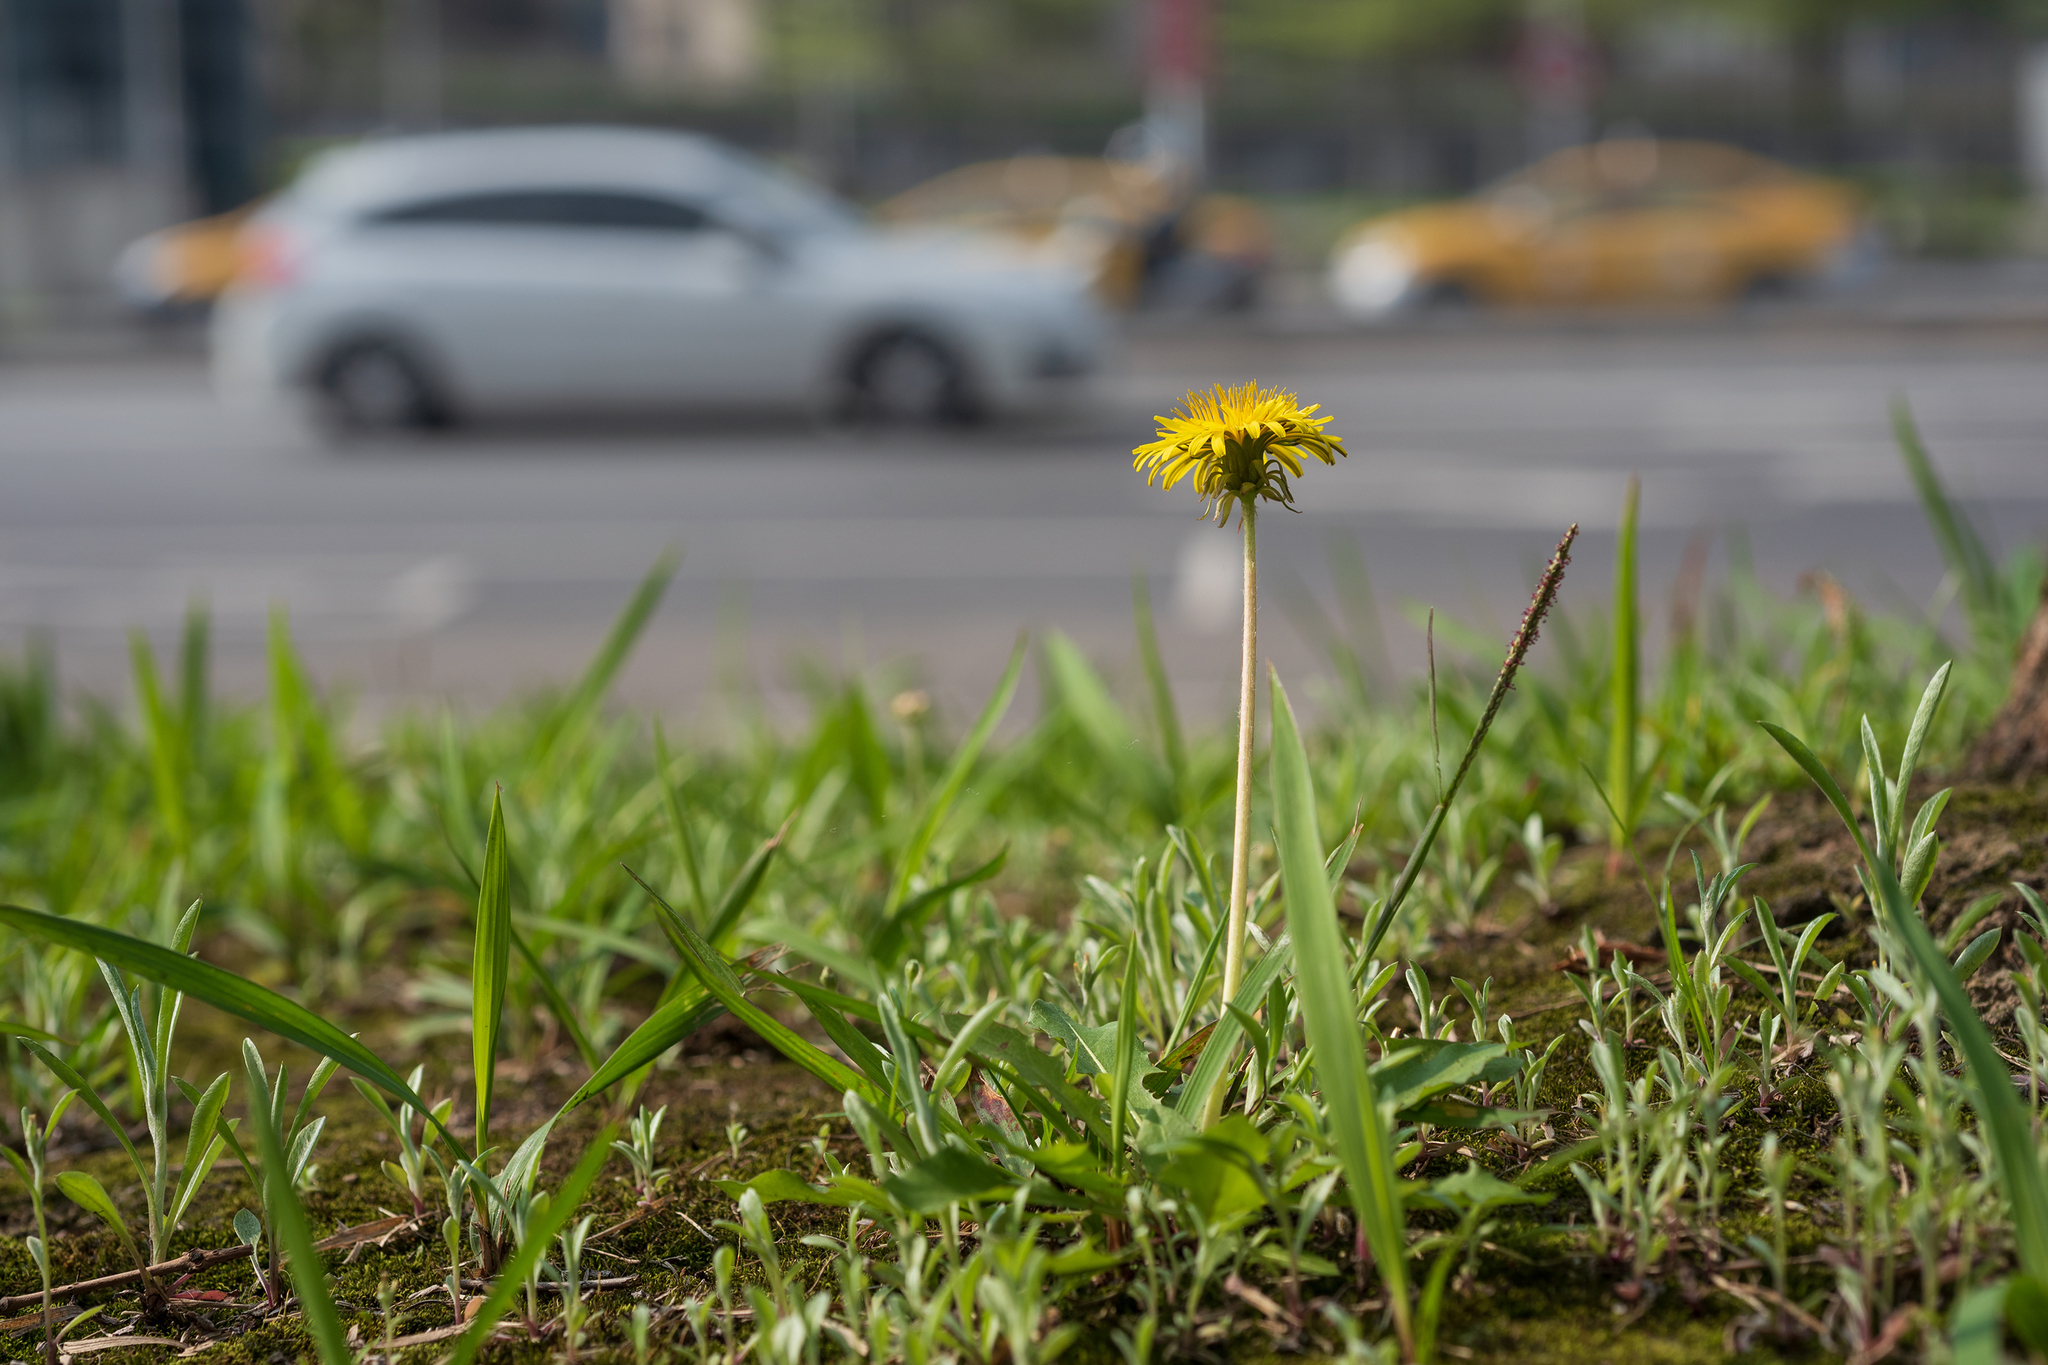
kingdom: Plantae
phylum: Tracheophyta
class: Magnoliopsida
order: Asterales
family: Asteraceae
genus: Taraxacum
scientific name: Taraxacum officinale
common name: Common dandelion
